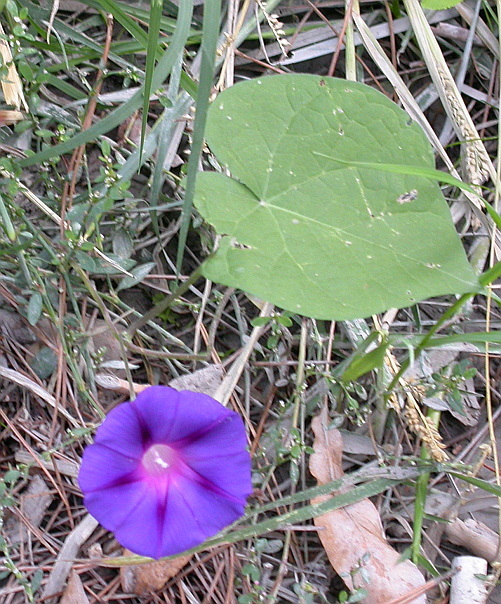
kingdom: Plantae
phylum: Tracheophyta
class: Magnoliopsida
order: Solanales
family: Convolvulaceae
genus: Ipomoea
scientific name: Ipomoea purpurea
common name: Common morning-glory
